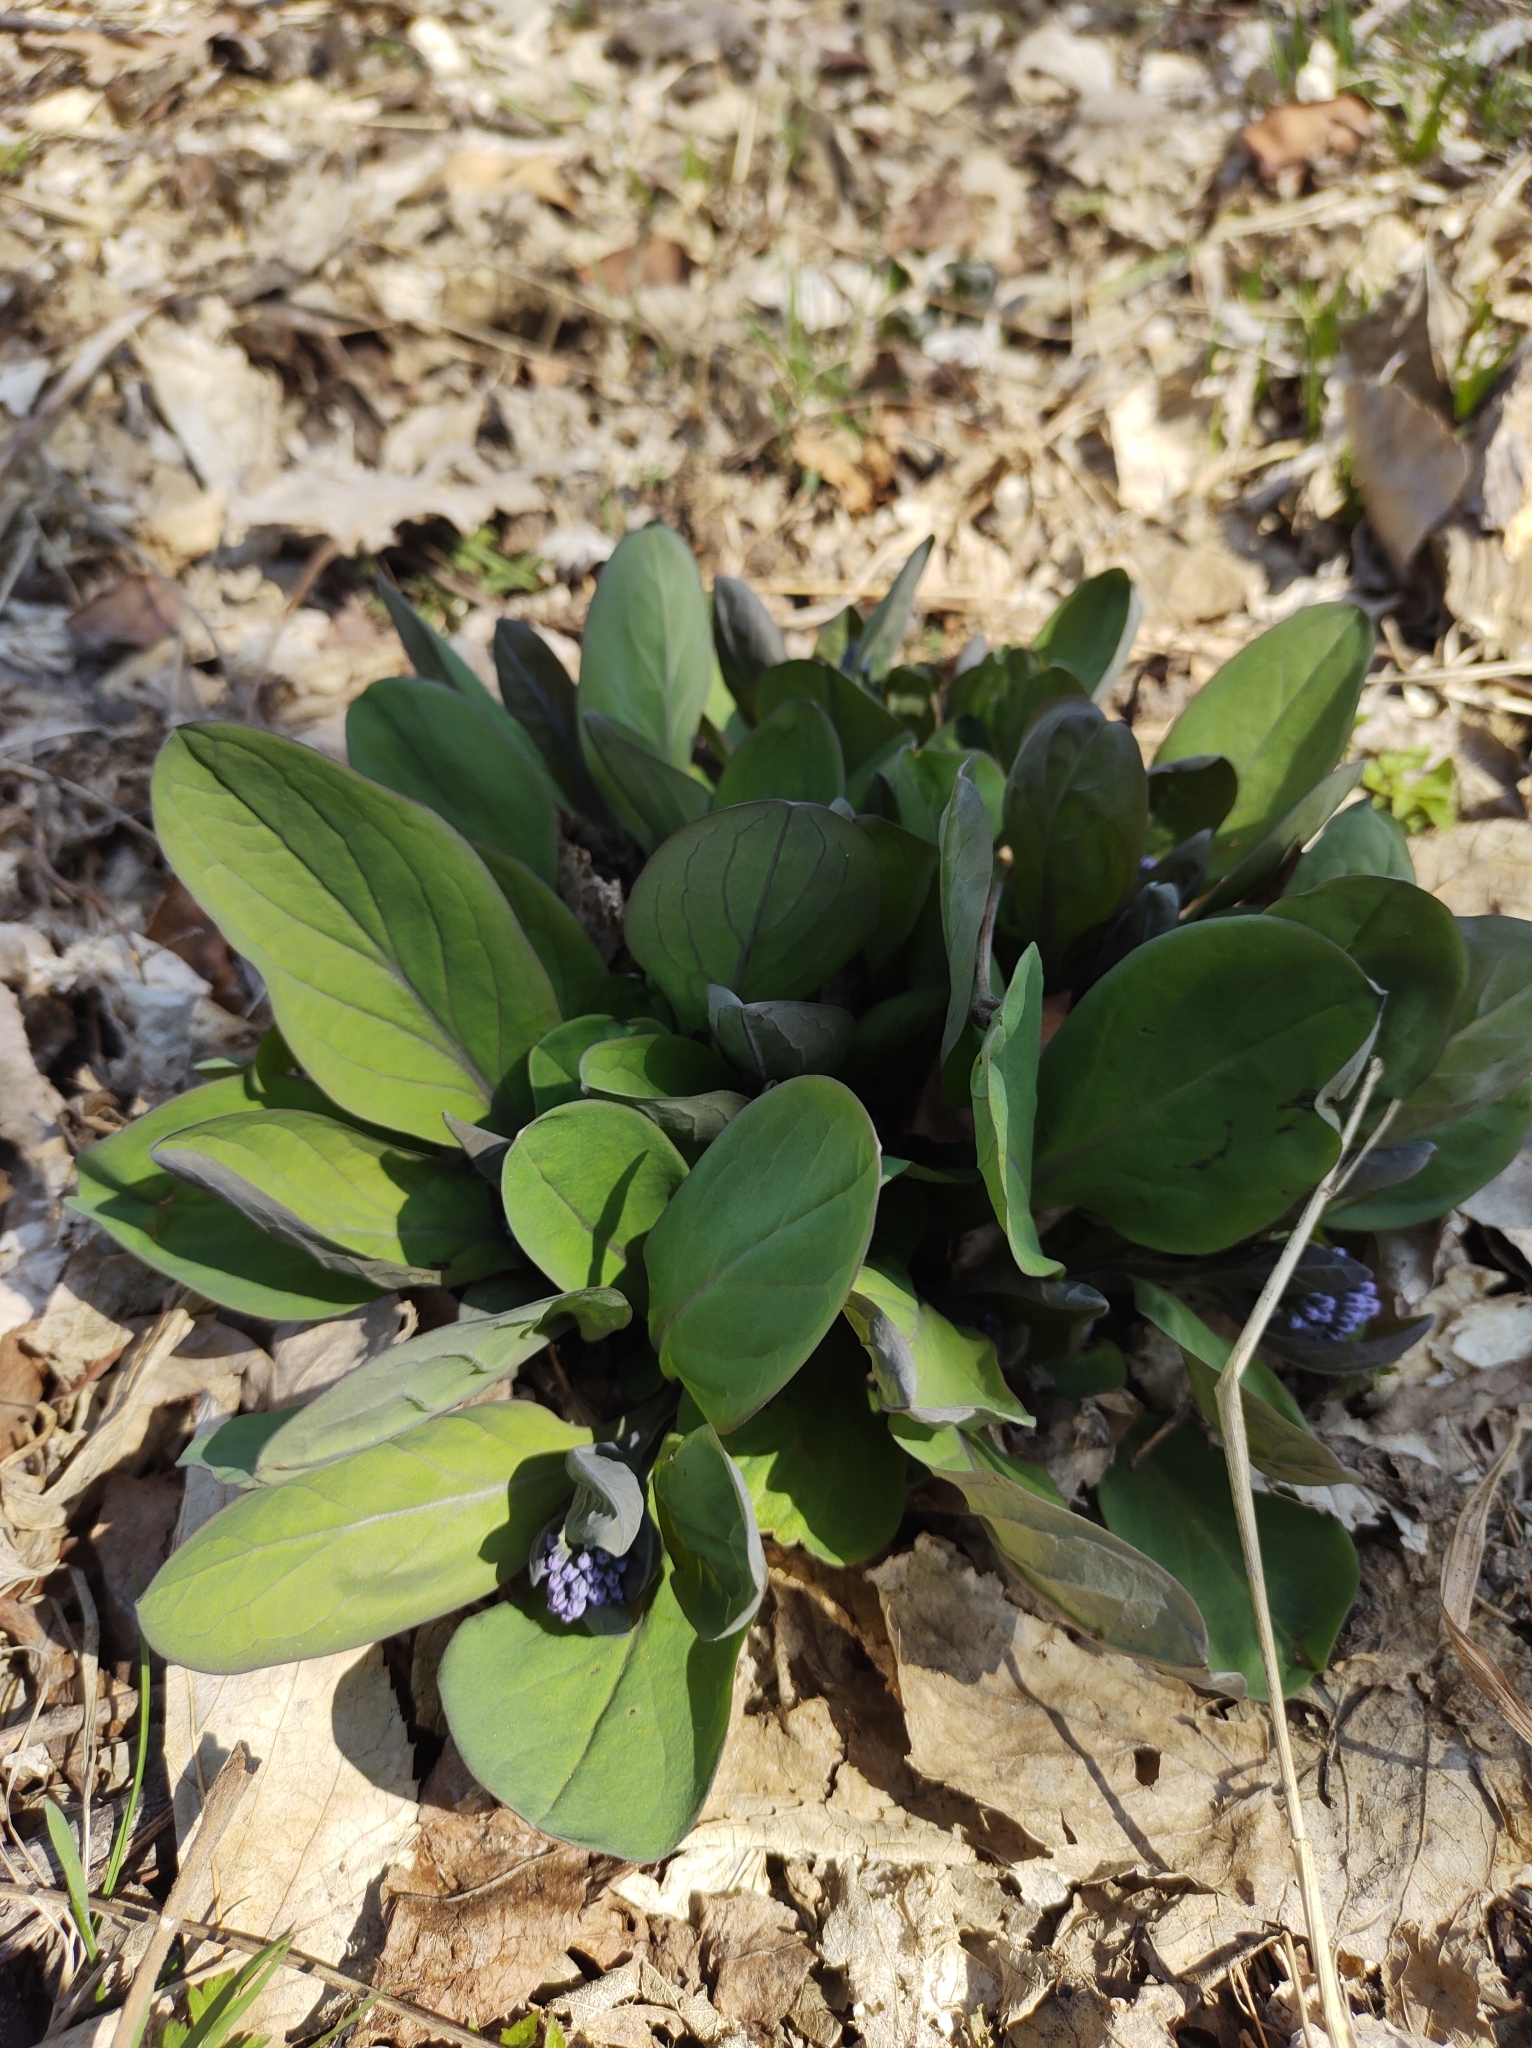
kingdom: Plantae
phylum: Tracheophyta
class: Magnoliopsida
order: Boraginales
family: Boraginaceae
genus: Mertensia
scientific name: Mertensia virginica
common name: Virginia bluebells
